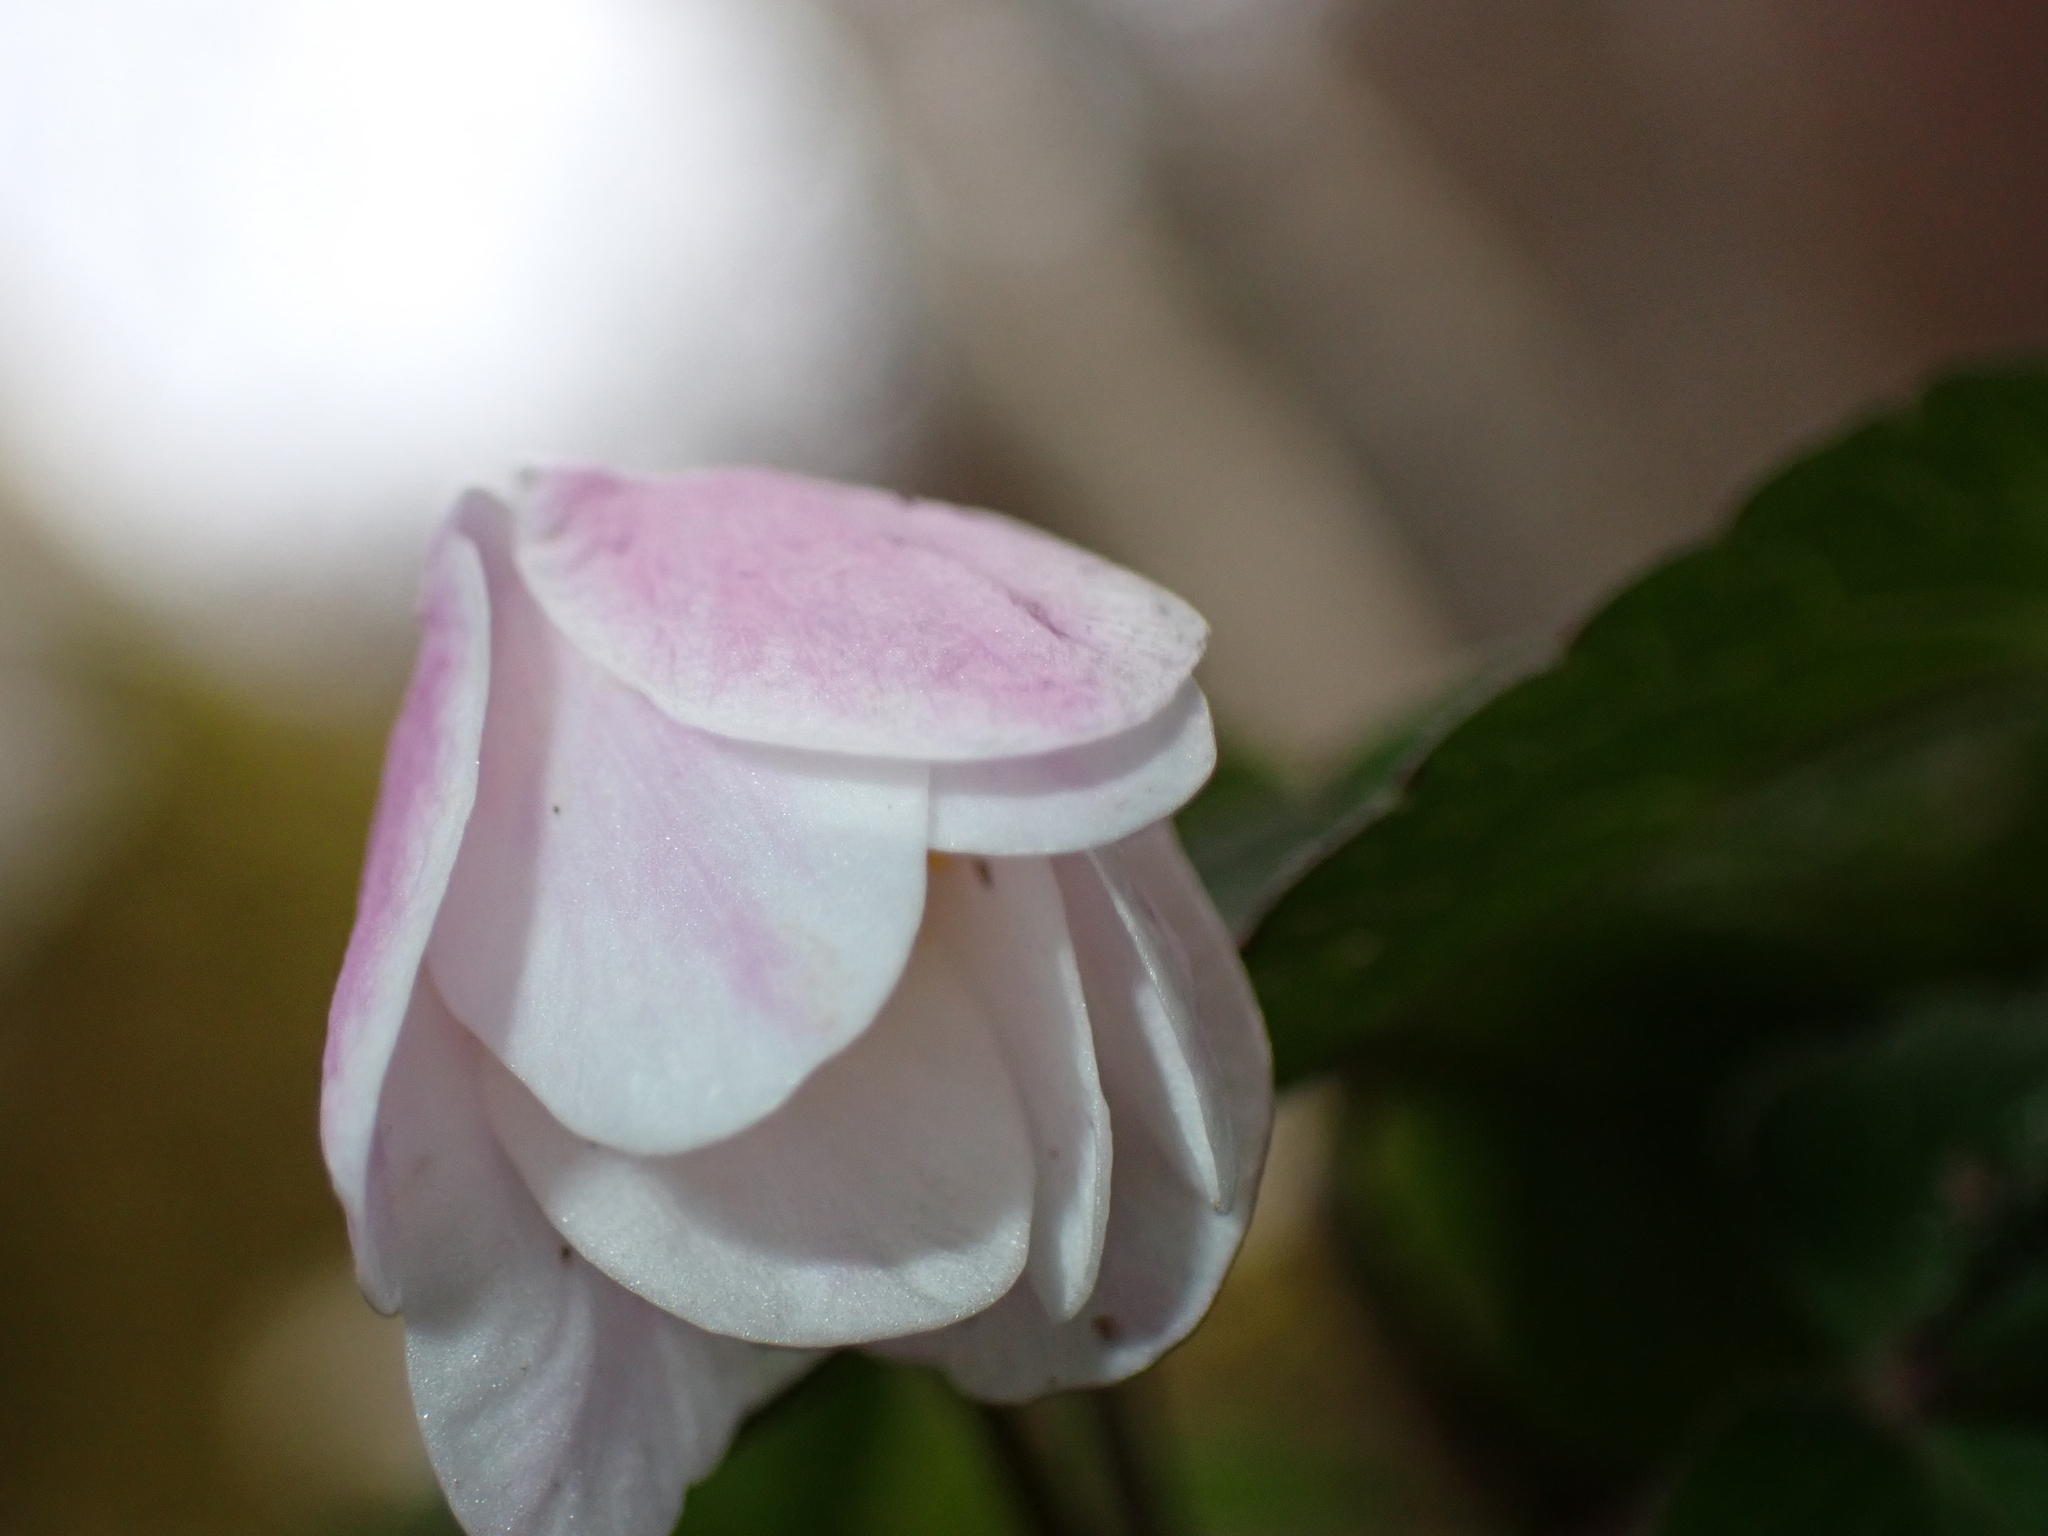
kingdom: Plantae
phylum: Tracheophyta
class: Magnoliopsida
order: Ranunculales
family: Ranunculaceae
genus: Anemone
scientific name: Anemone nemorosa
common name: Wood anemone
